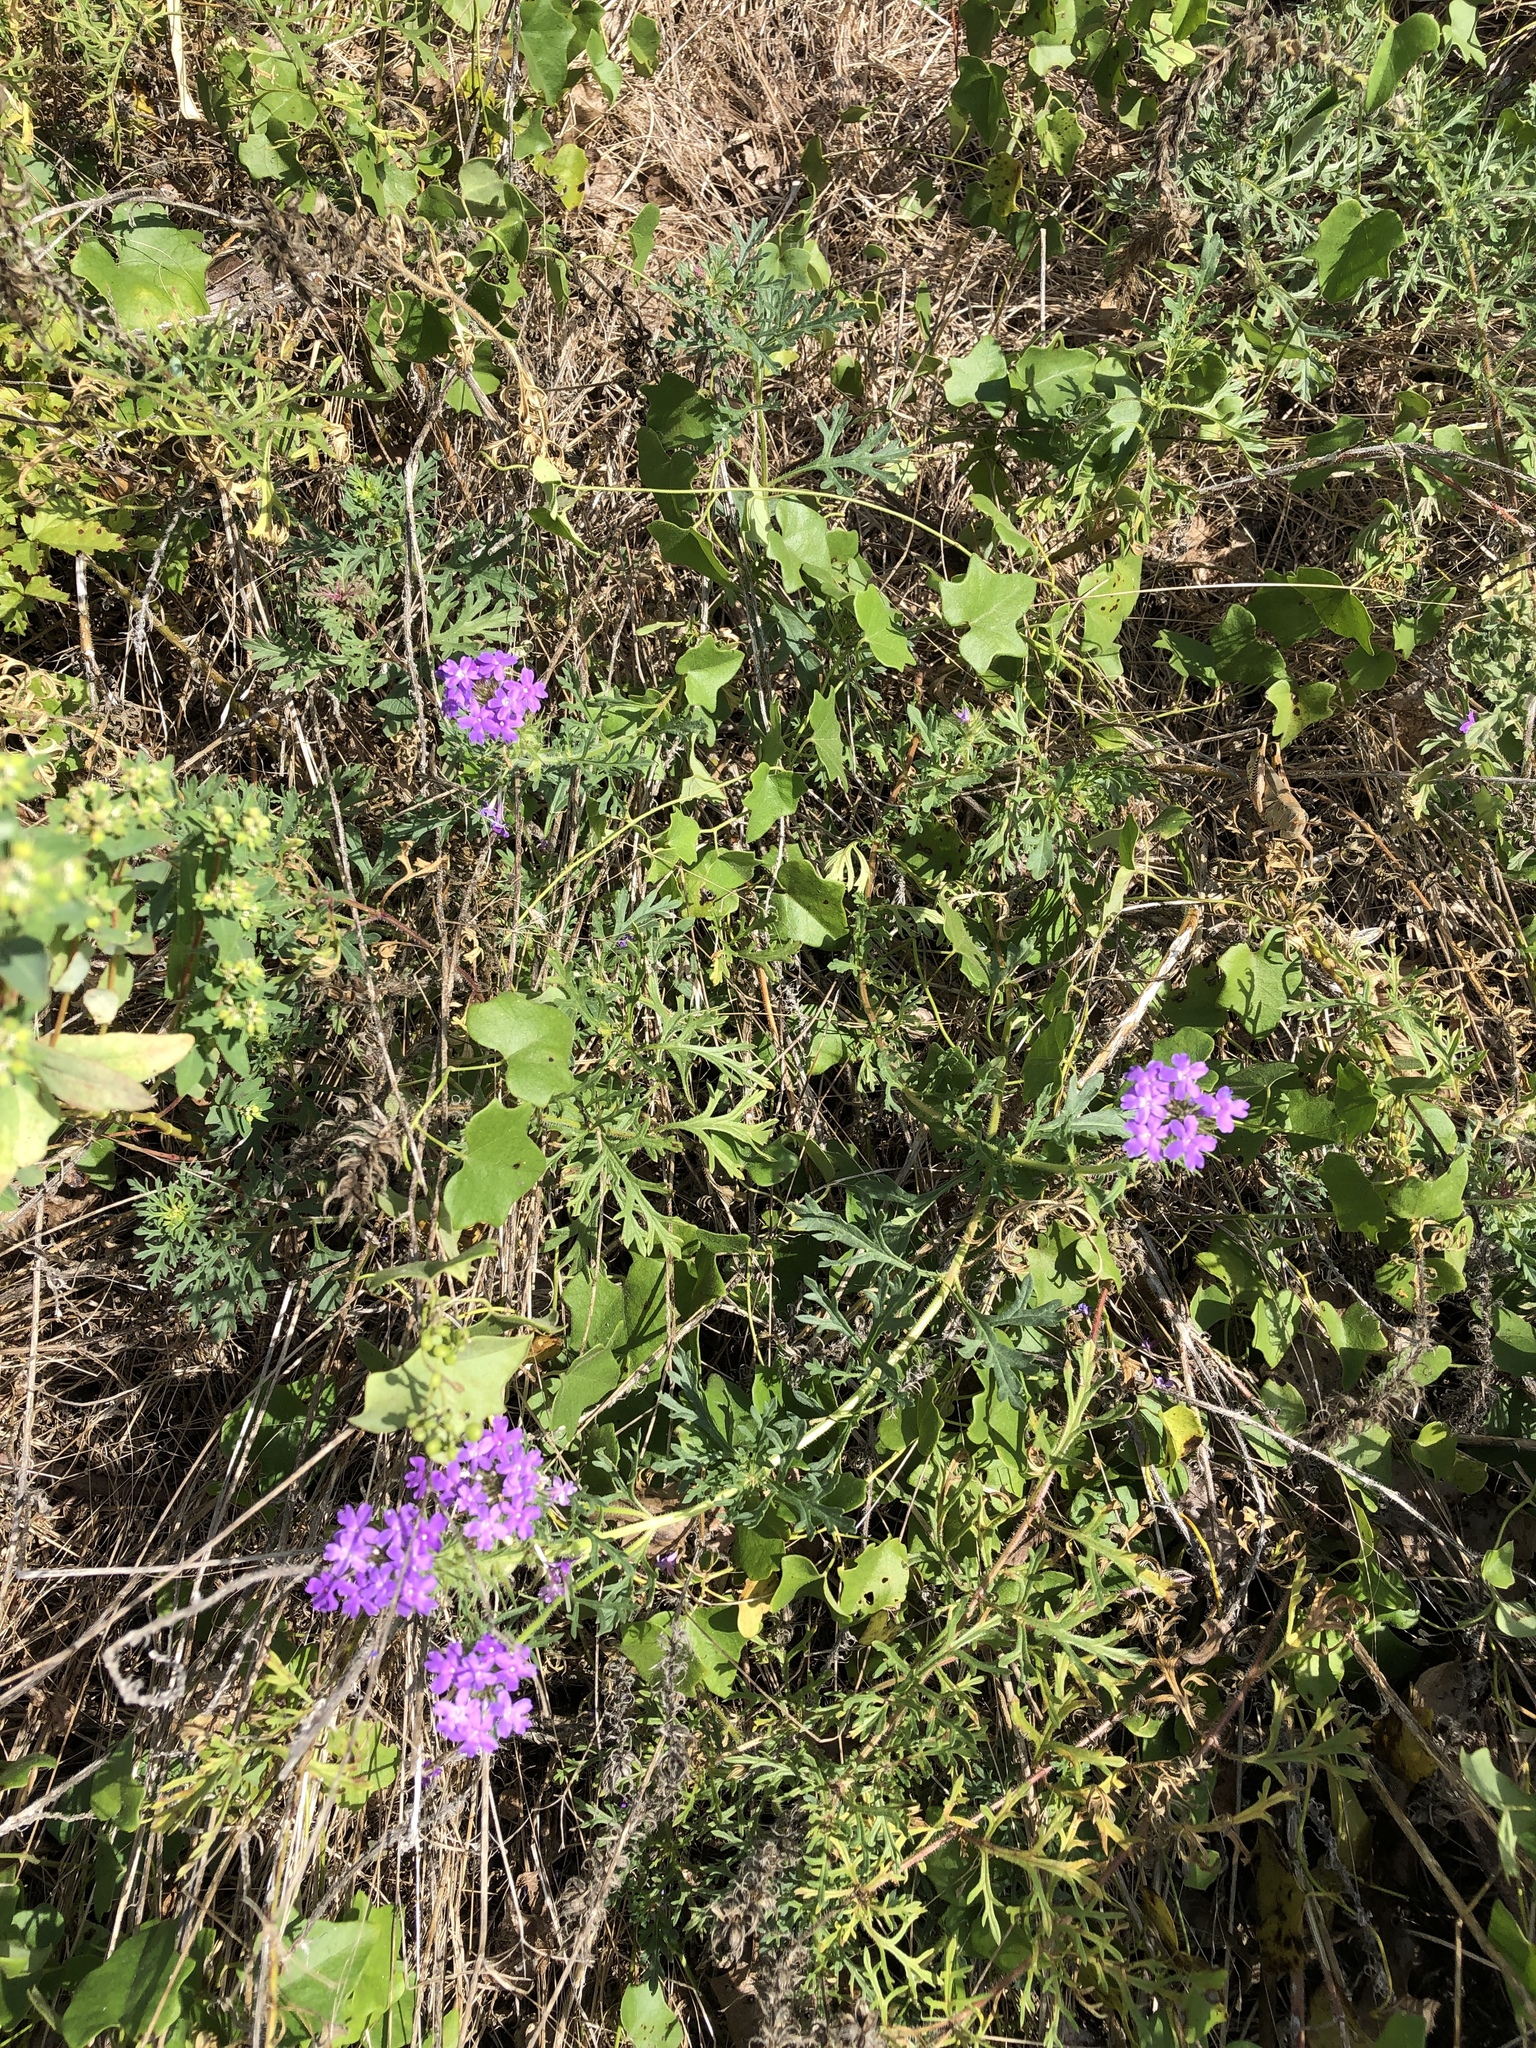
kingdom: Plantae
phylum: Tracheophyta
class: Magnoliopsida
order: Lamiales
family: Verbenaceae
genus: Verbena
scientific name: Verbena bipinnatifida
